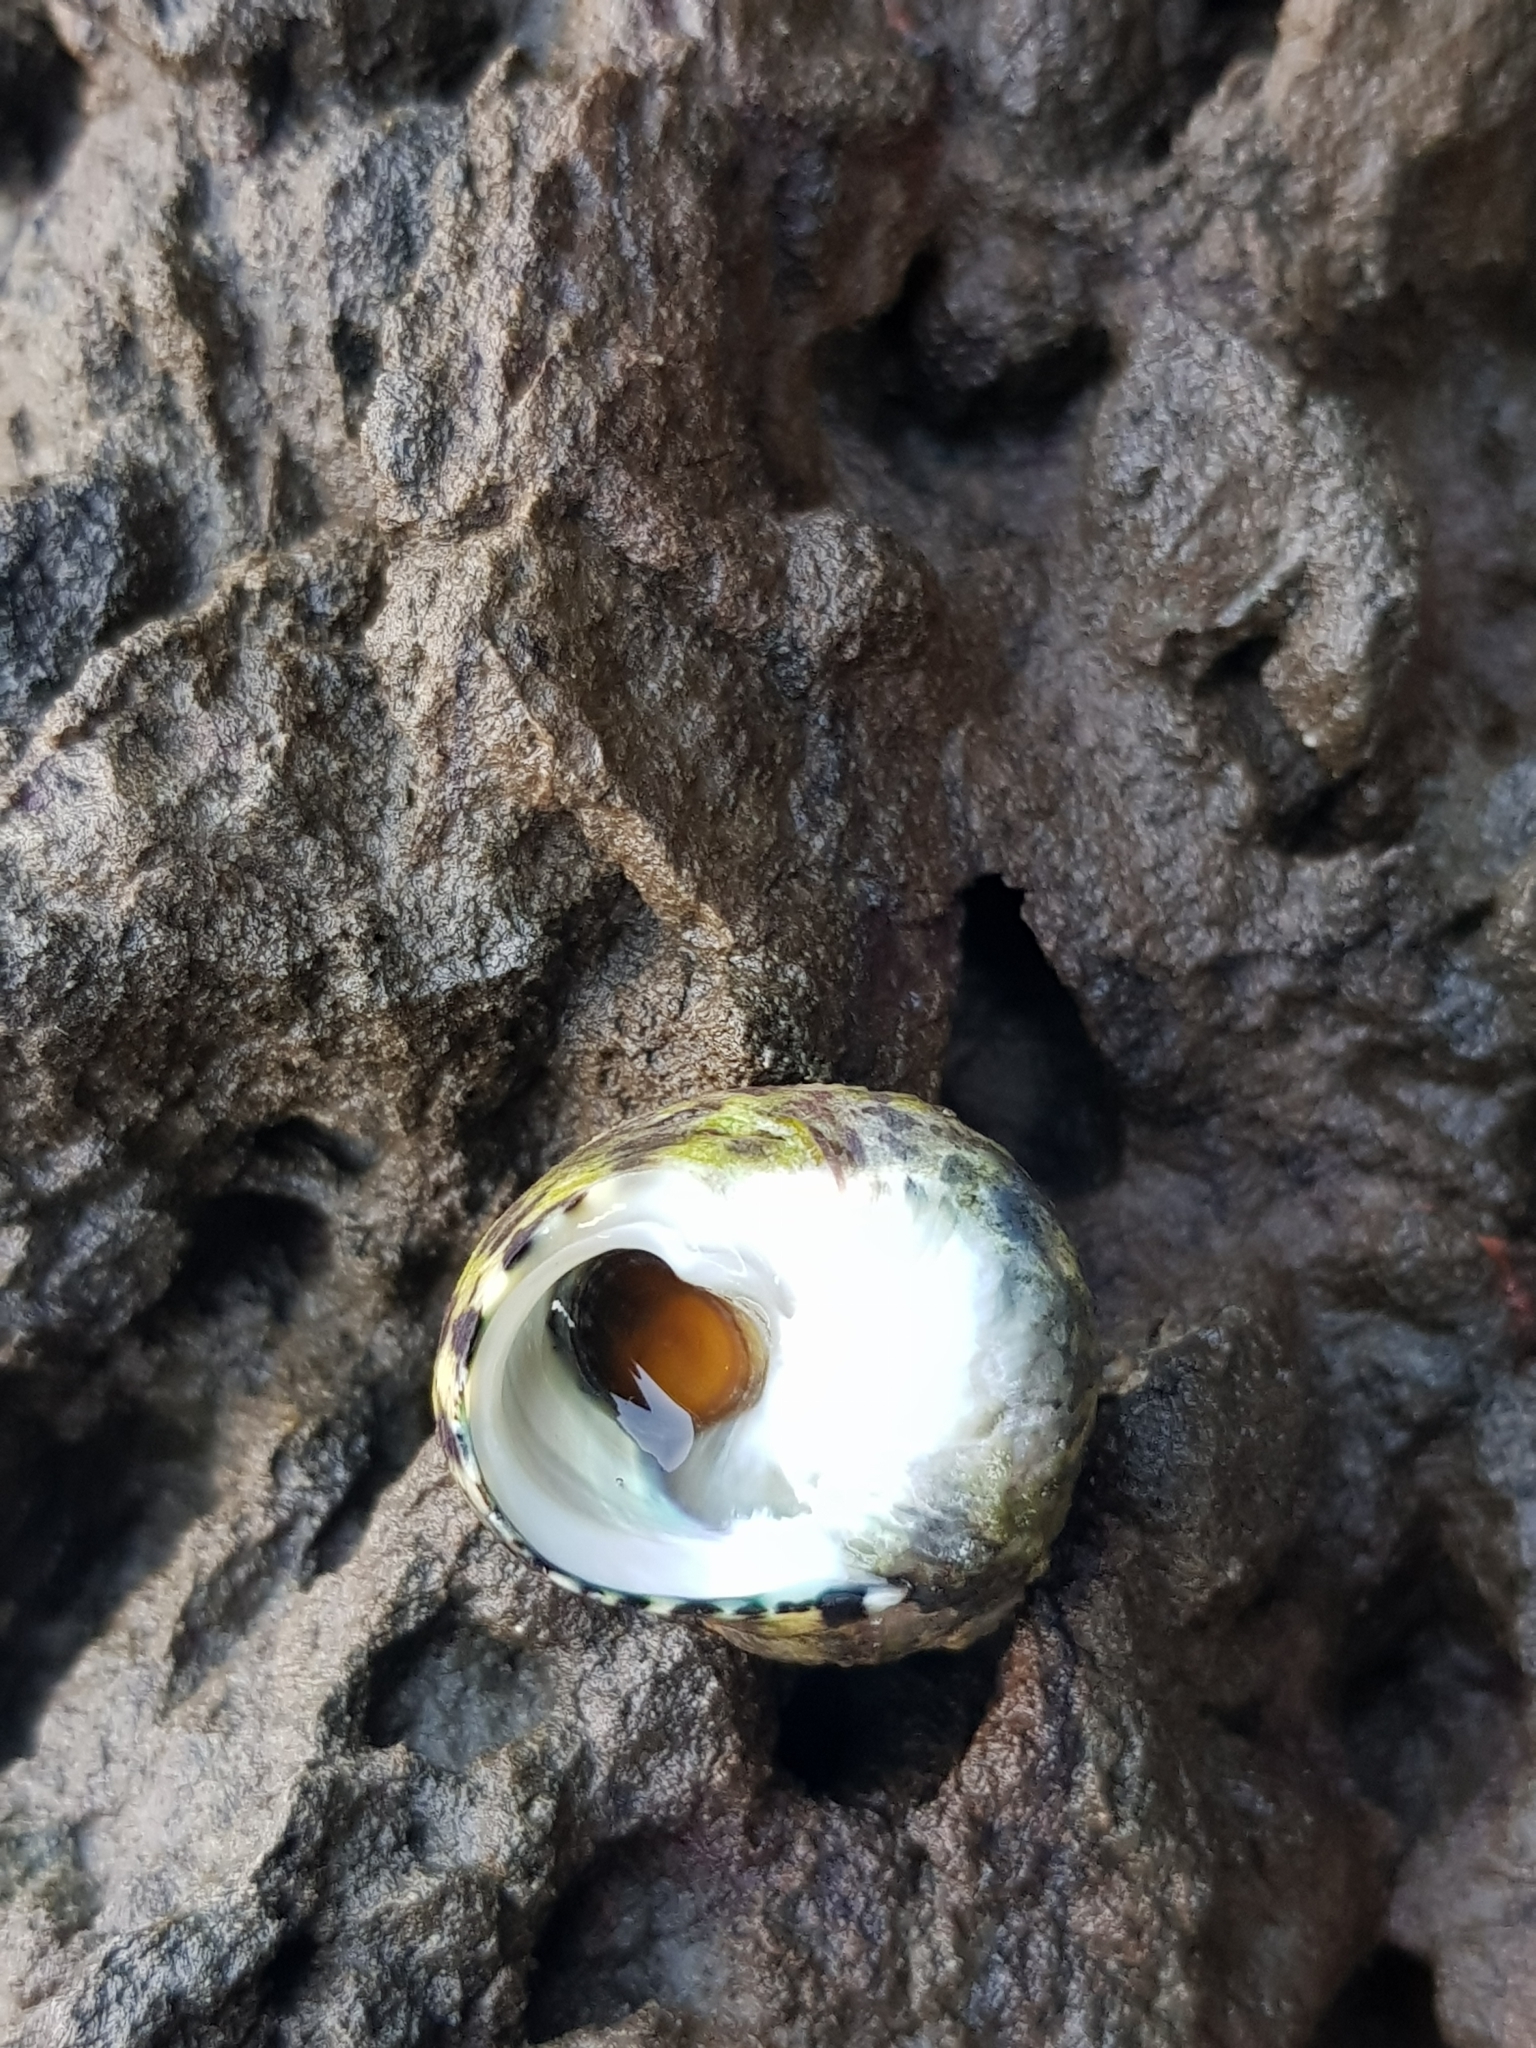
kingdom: Animalia
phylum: Mollusca
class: Gastropoda
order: Trochida
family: Trochidae
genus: Phorcus
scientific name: Phorcus articulatus
